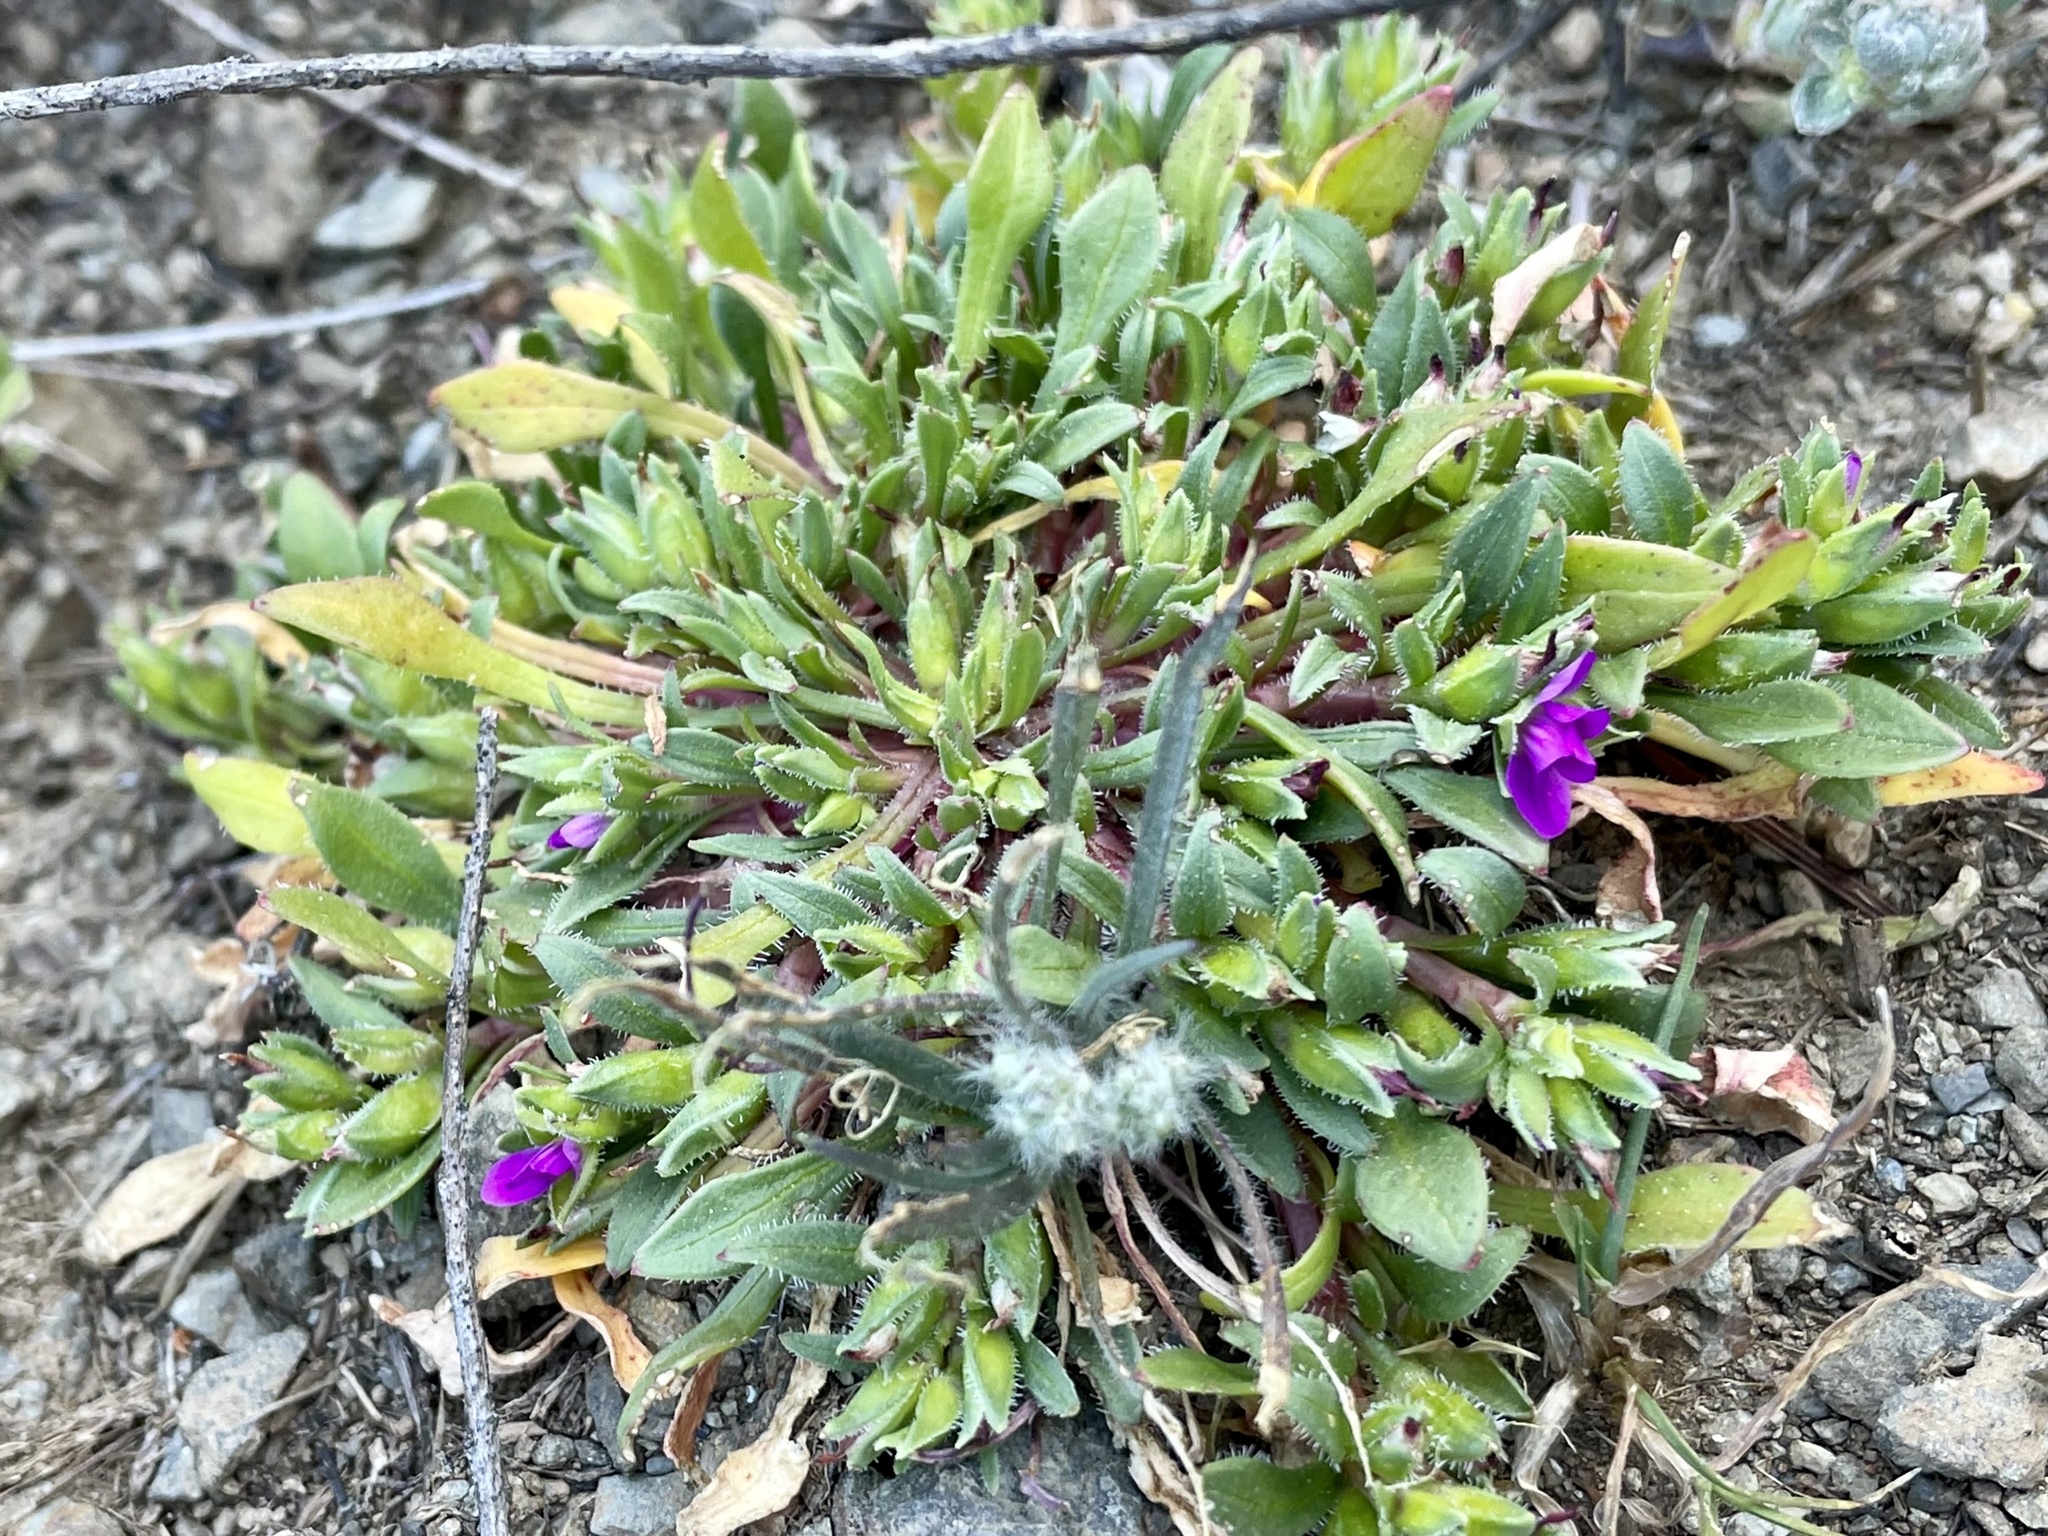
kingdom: Plantae
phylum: Tracheophyta
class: Magnoliopsida
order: Caryophyllales
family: Montiaceae
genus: Calandrinia
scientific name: Calandrinia menziesii
